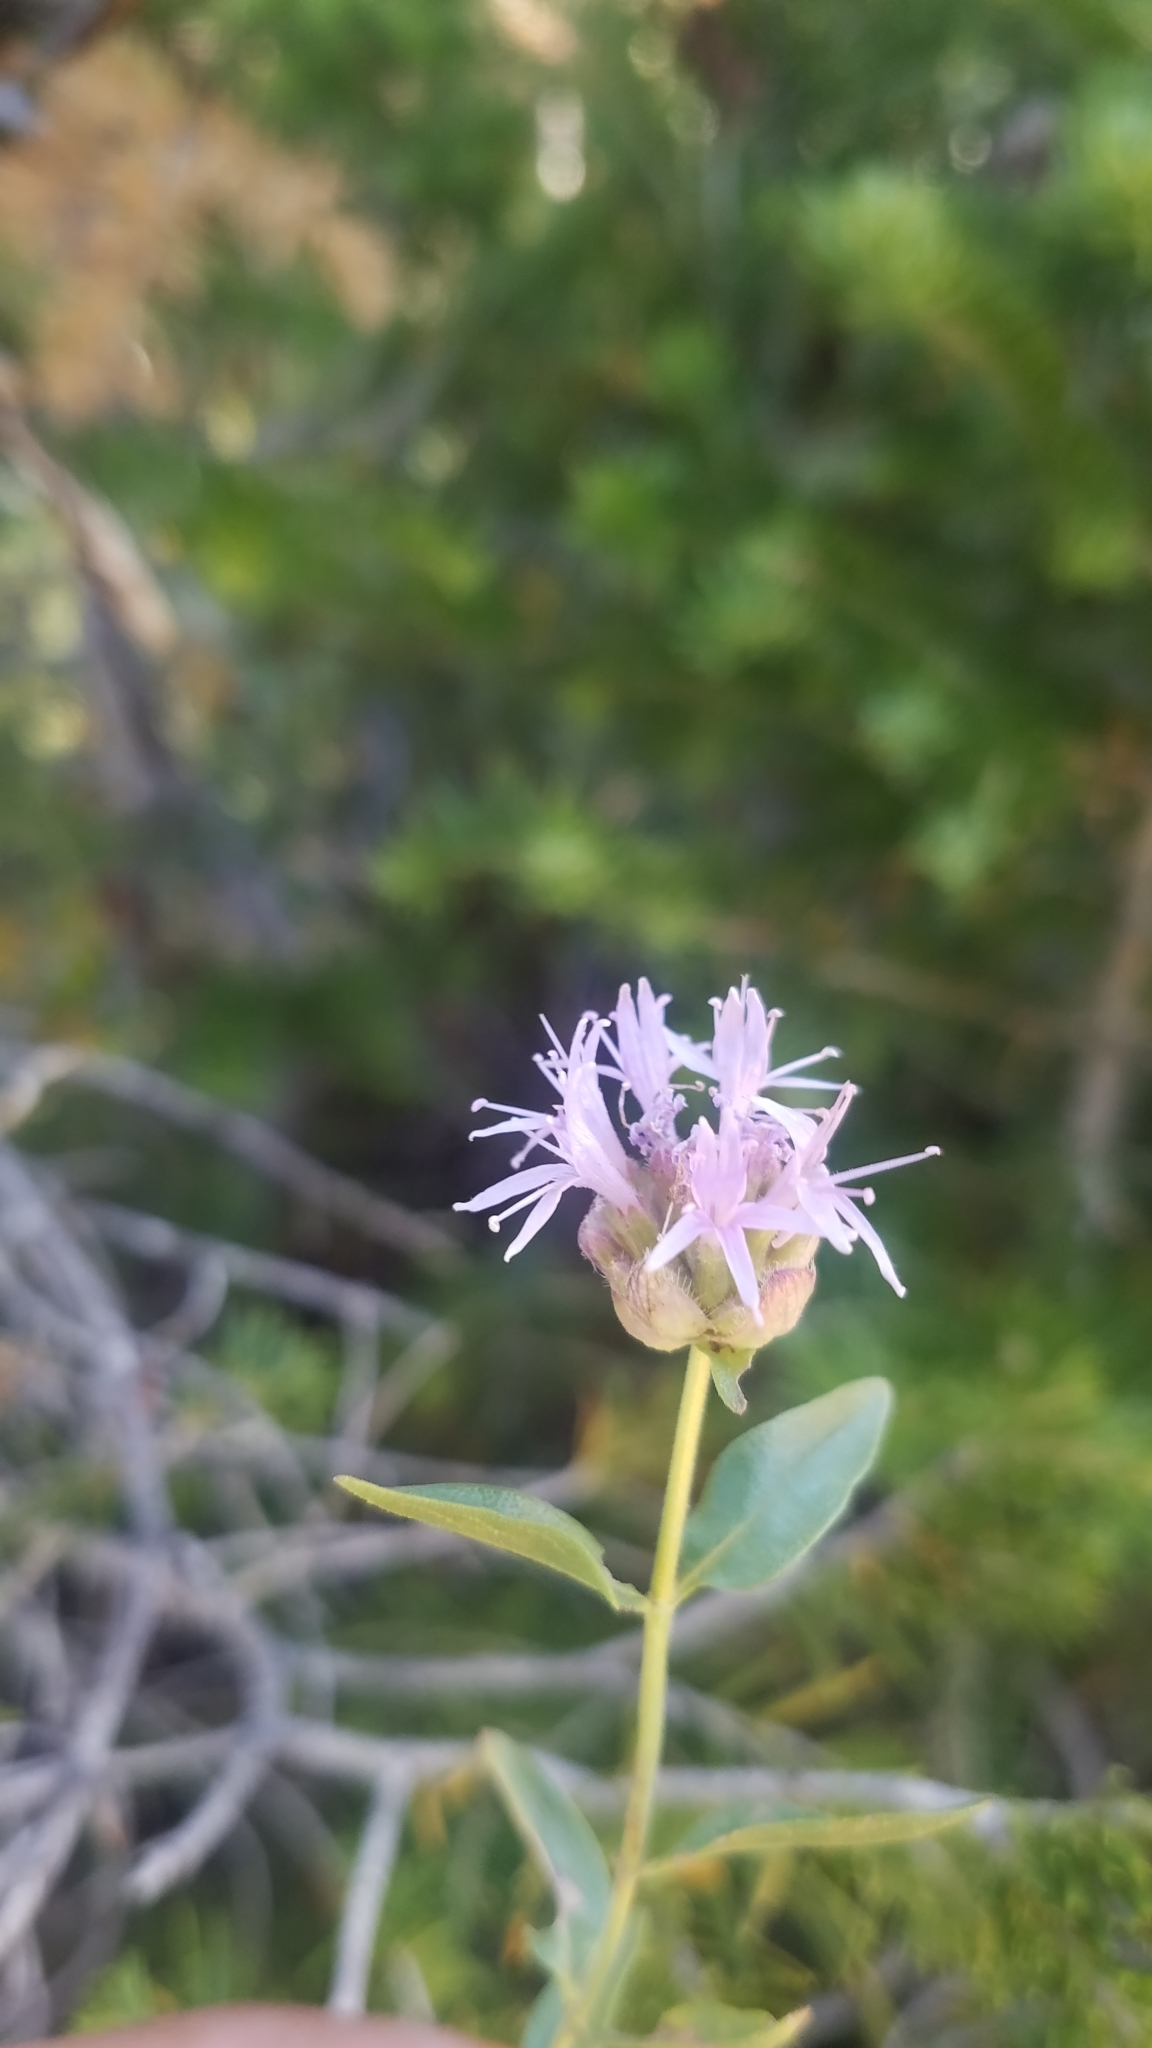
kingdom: Plantae
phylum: Tracheophyta
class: Magnoliopsida
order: Lamiales
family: Lamiaceae
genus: Monardella
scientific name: Monardella odoratissima
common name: Pacific monardella
